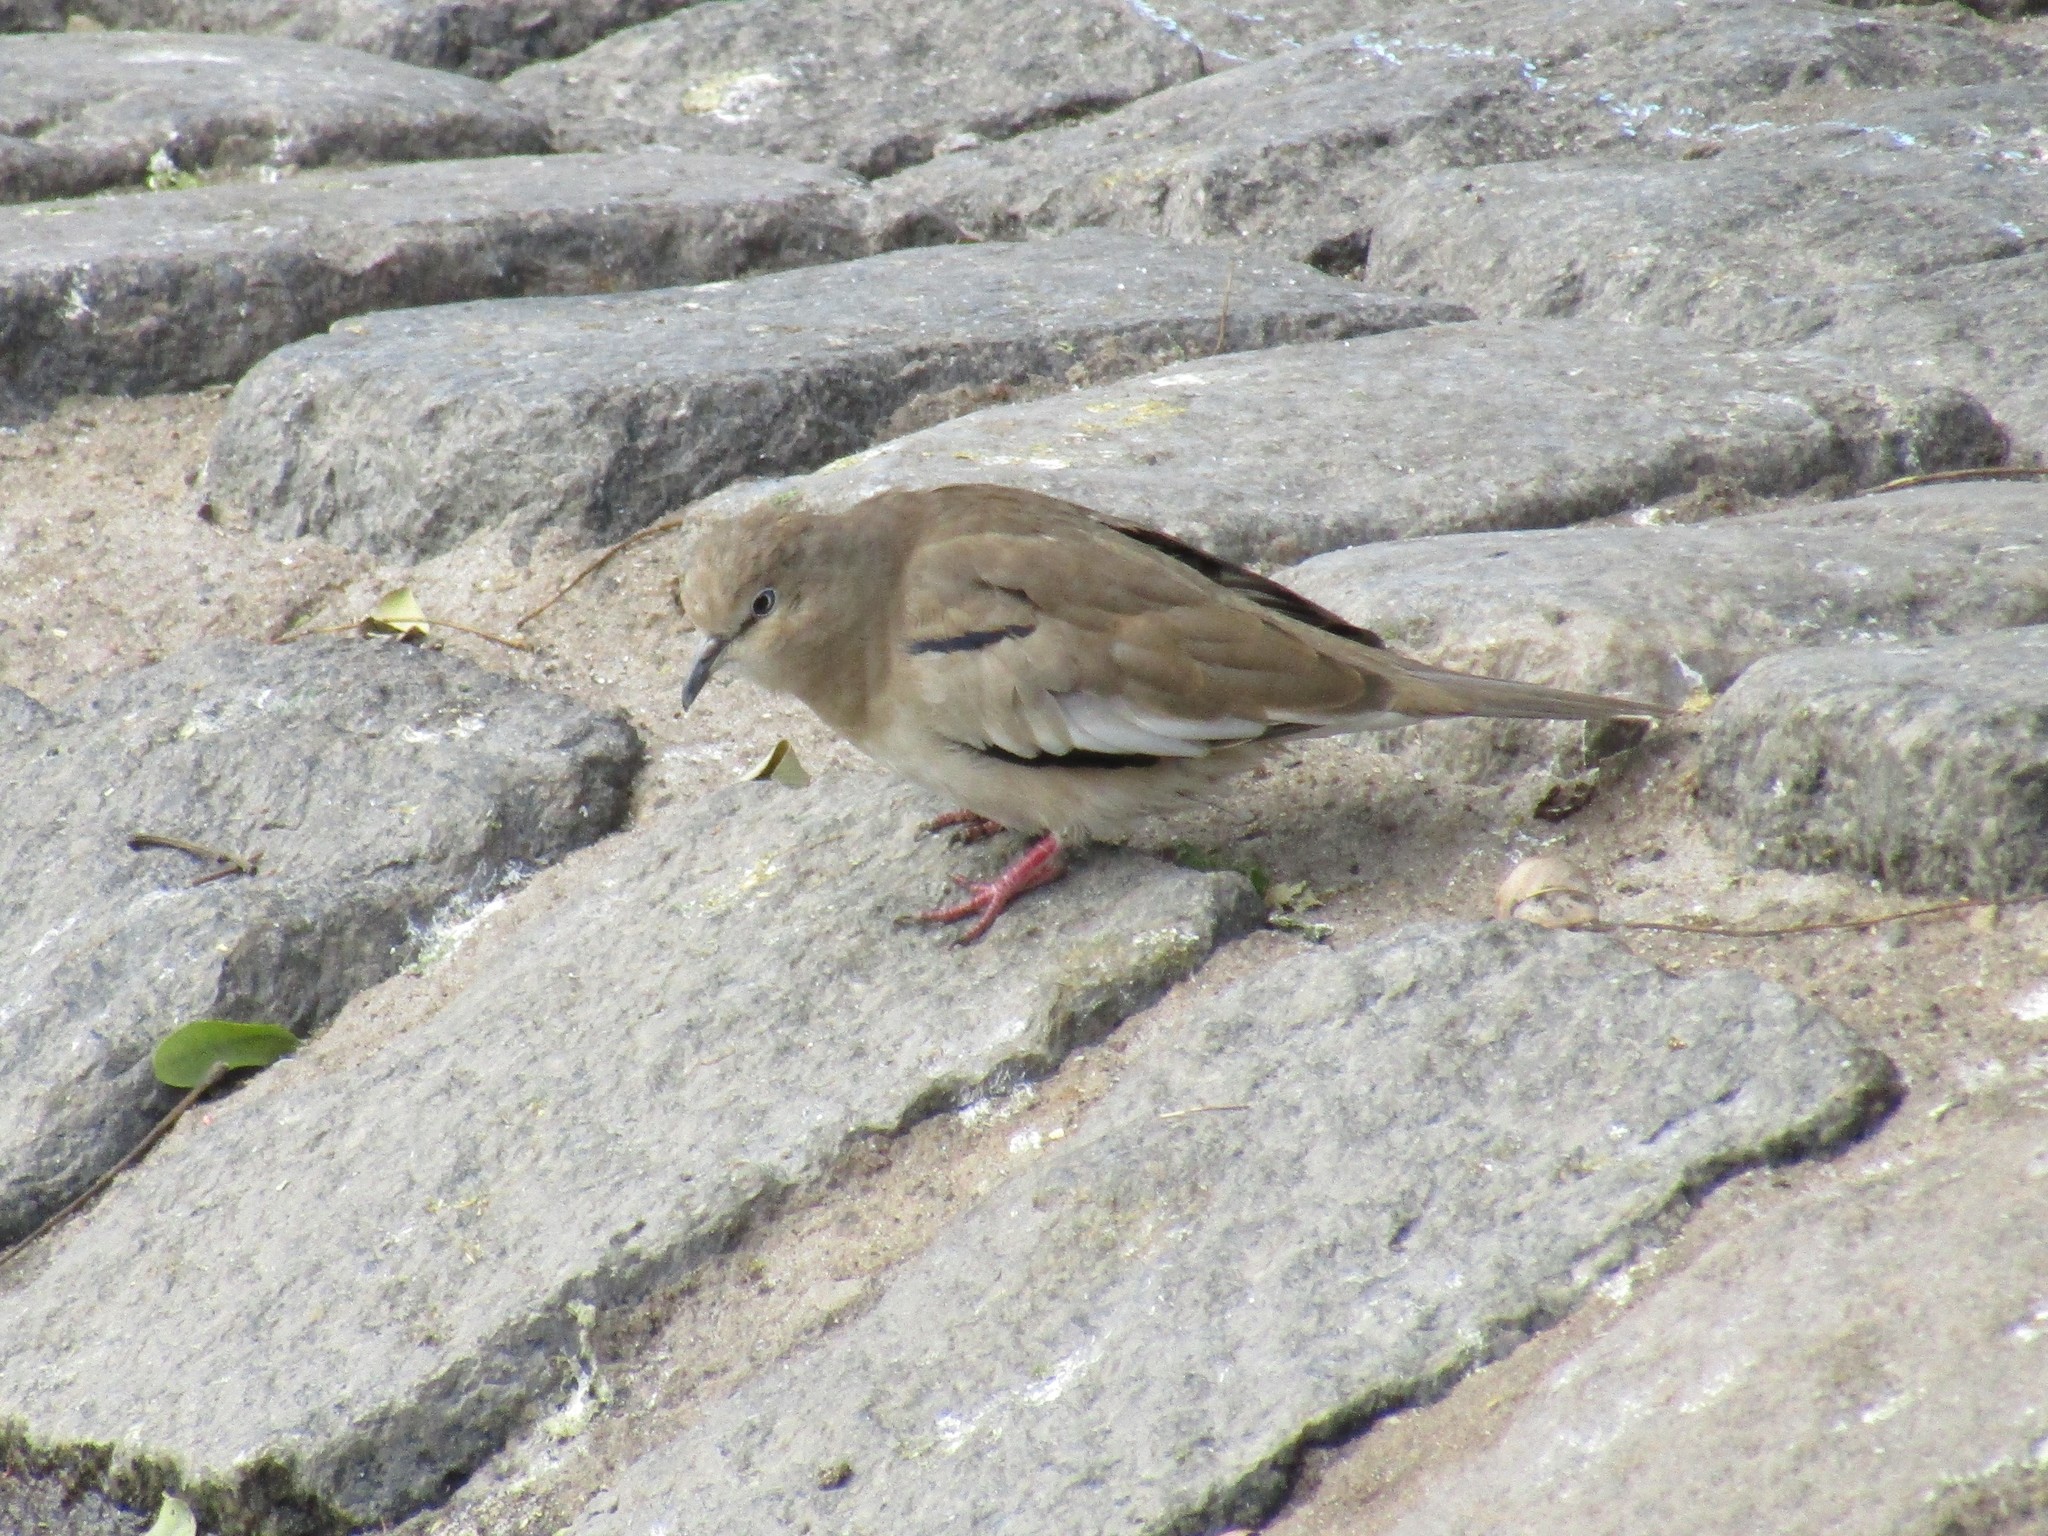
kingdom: Animalia
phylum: Chordata
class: Aves
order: Columbiformes
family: Columbidae
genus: Columbina
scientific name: Columbina picui
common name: Picui ground dove
